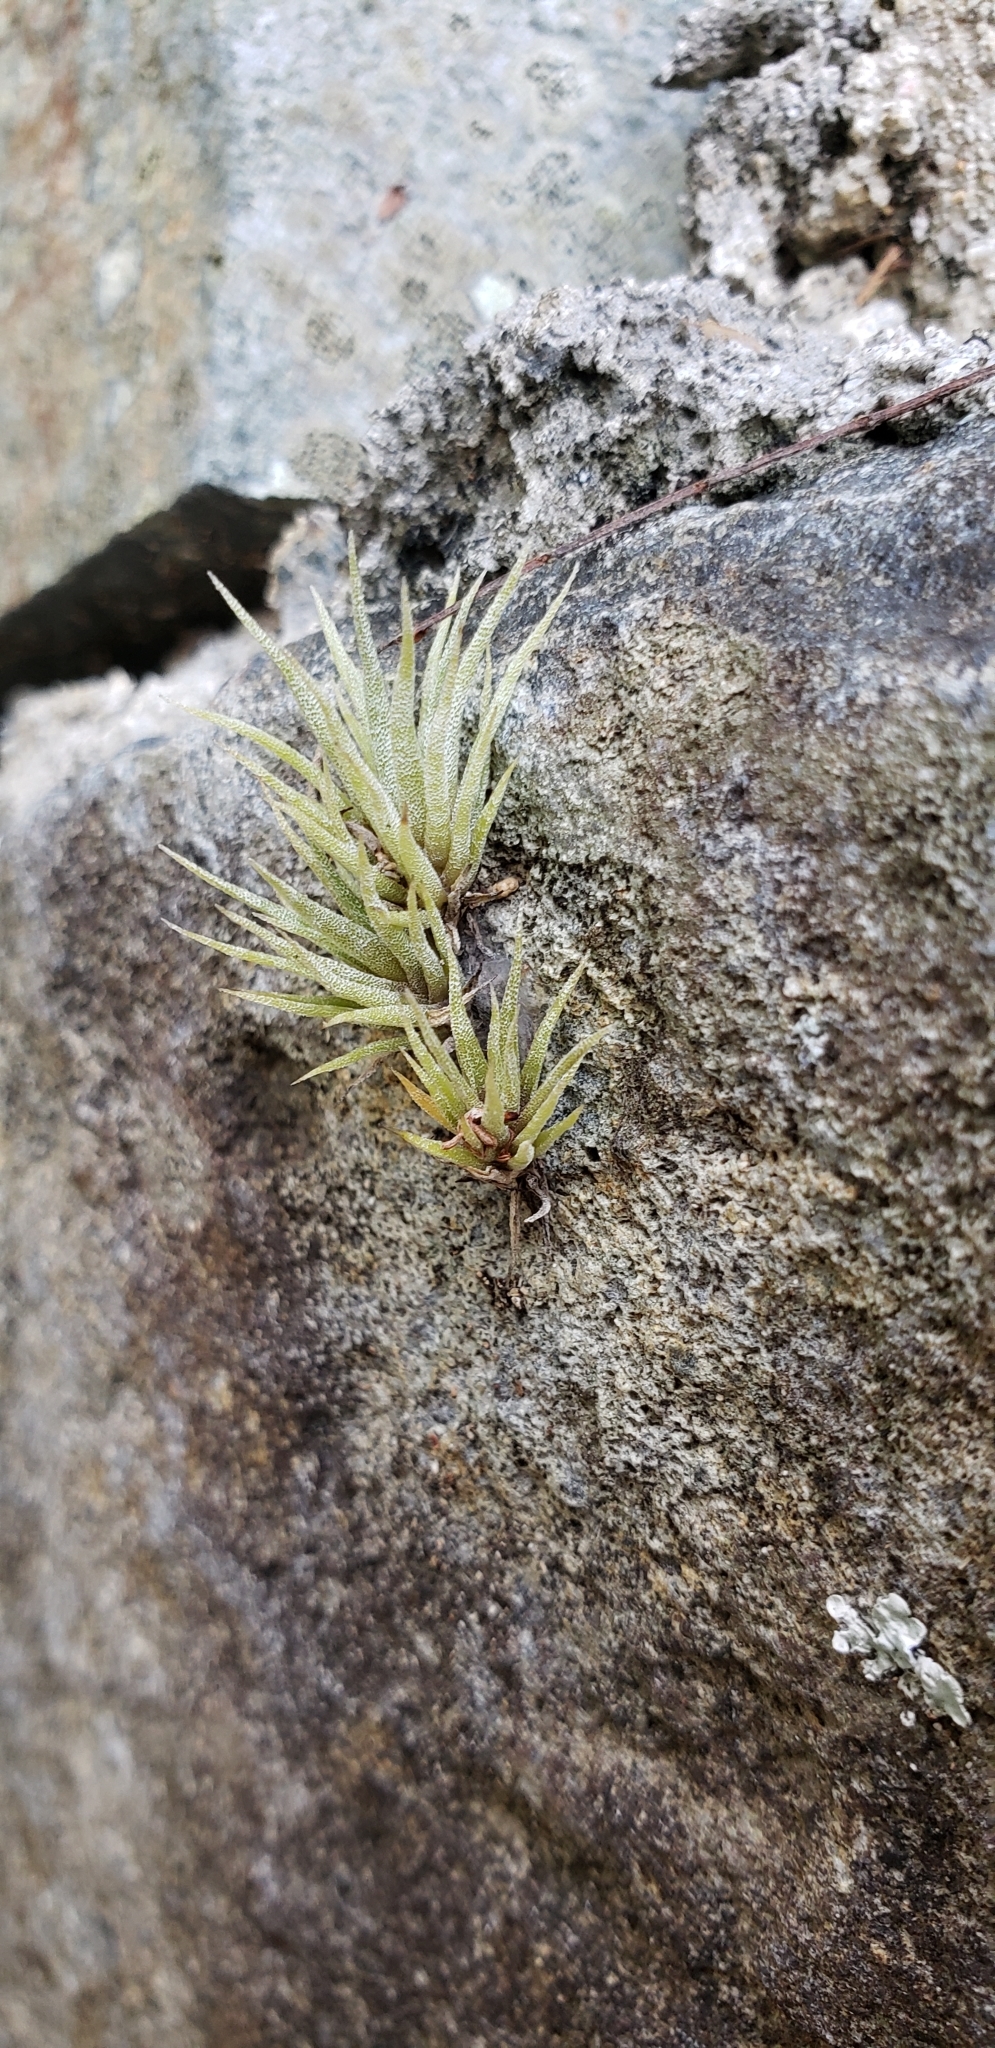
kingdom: Plantae
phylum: Tracheophyta
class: Liliopsida
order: Poales
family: Bromeliaceae
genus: Tillandsia
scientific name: Tillandsia fasciculata
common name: Giant airplant
